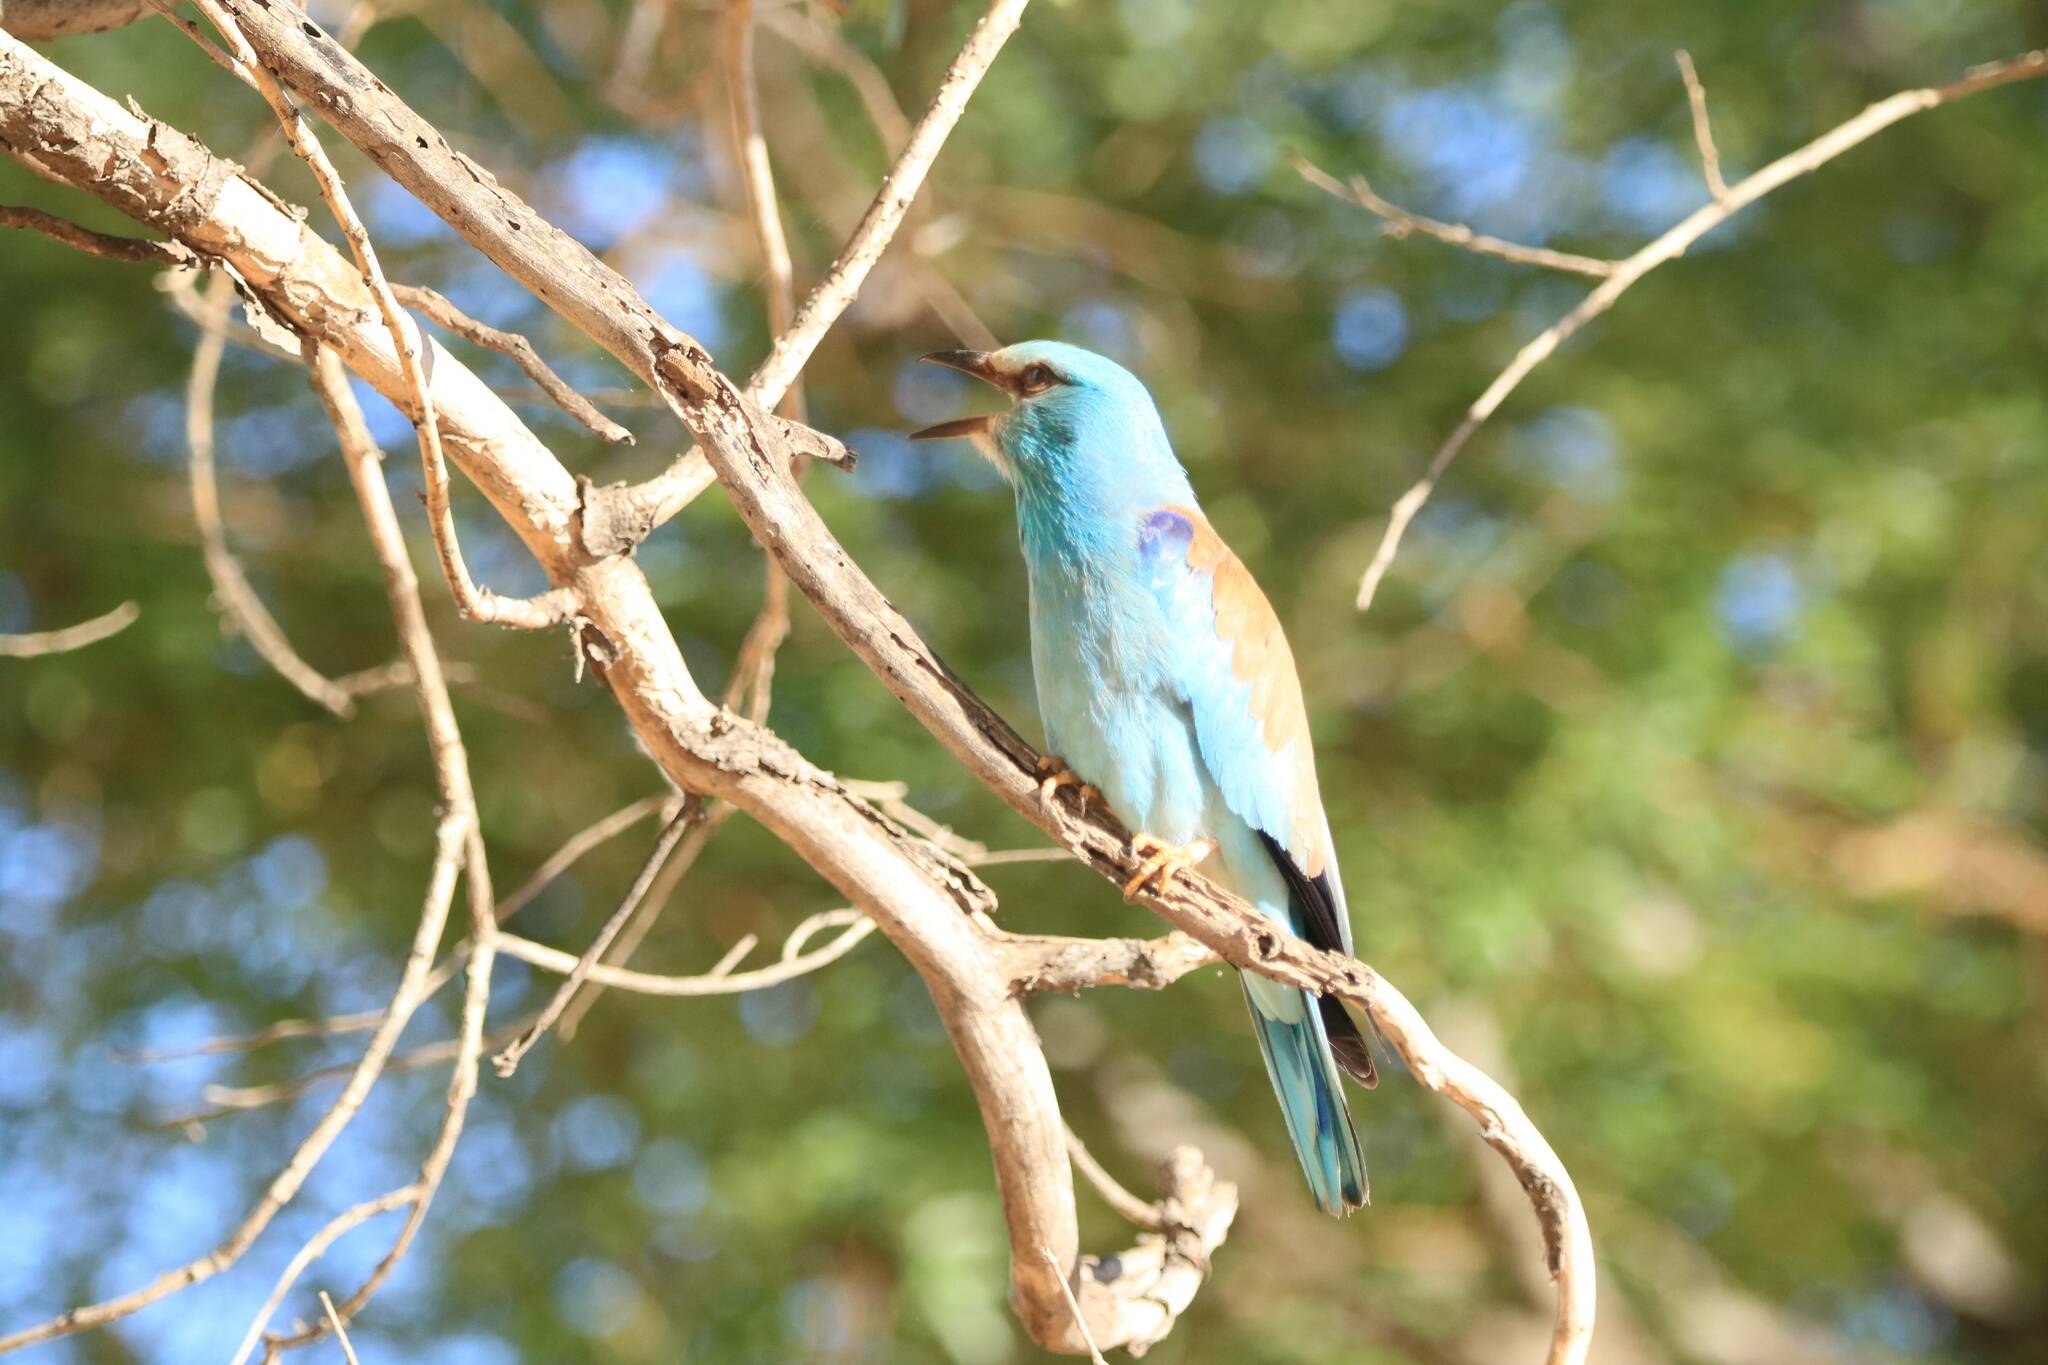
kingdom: Animalia
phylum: Chordata
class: Aves
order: Coraciiformes
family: Coraciidae
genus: Coracias
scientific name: Coracias garrulus
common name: European roller
